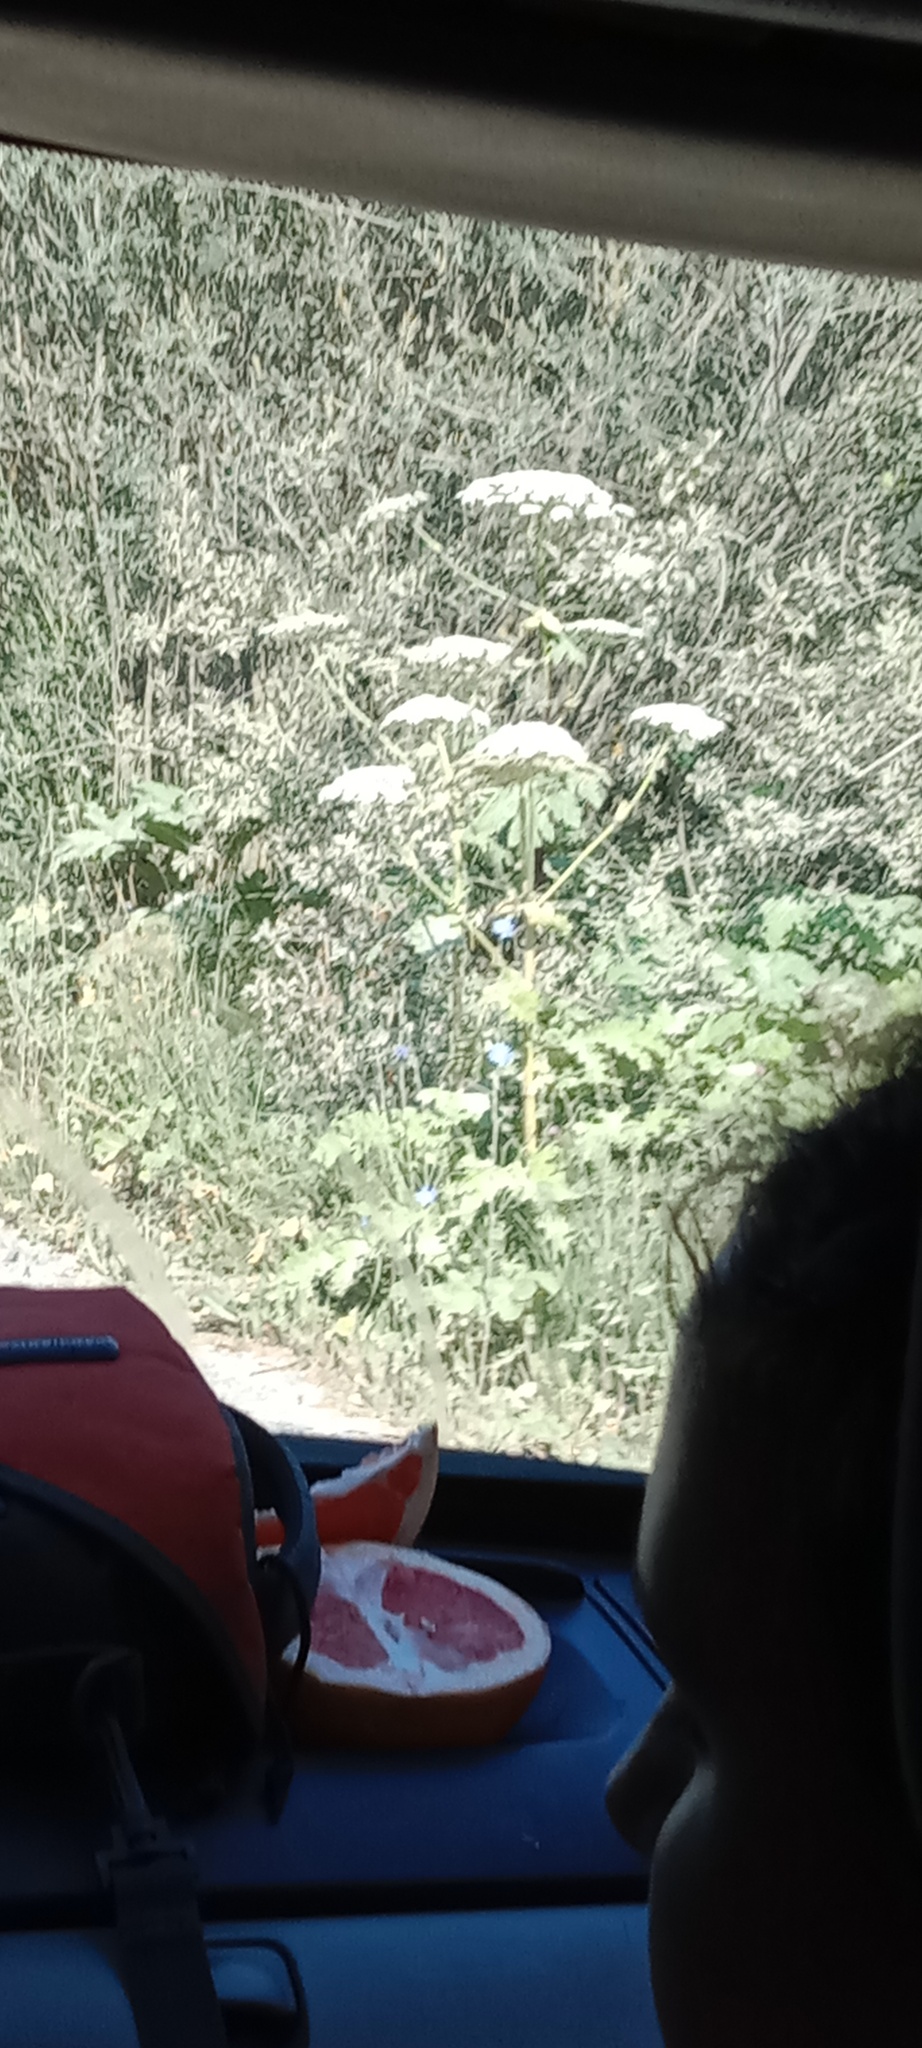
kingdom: Plantae
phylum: Tracheophyta
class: Magnoliopsida
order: Apiales
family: Apiaceae
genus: Heracleum
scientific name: Heracleum sosnowskyi
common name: Sosnowsky's hogweed
